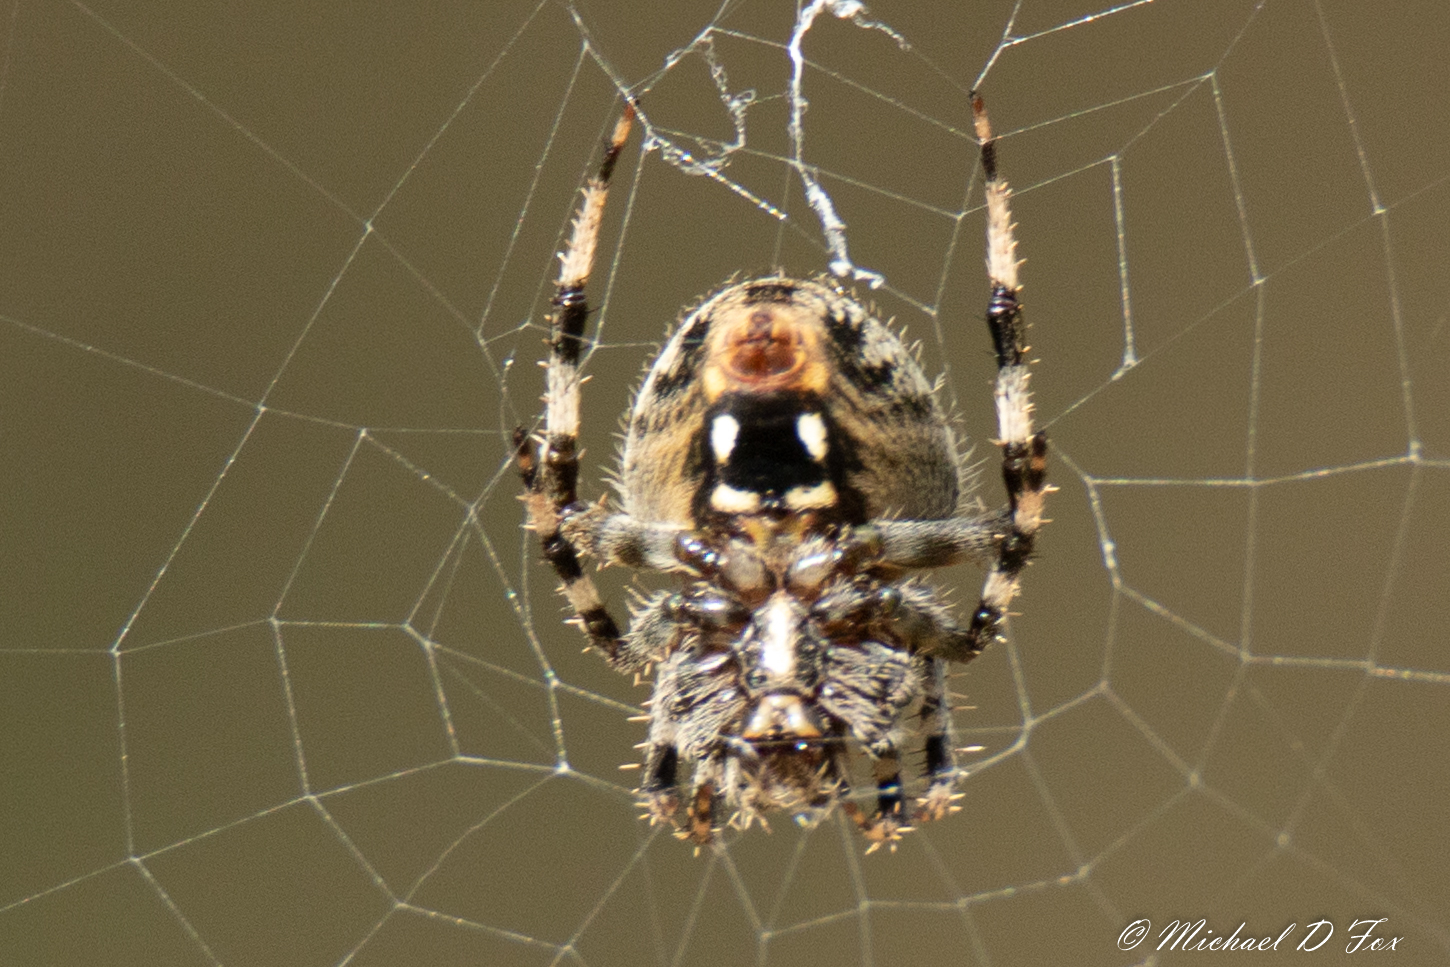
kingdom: Animalia
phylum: Arthropoda
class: Arachnida
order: Araneae
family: Araneidae
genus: Neoscona
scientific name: Neoscona crucifera
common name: Spotted orbweaver
